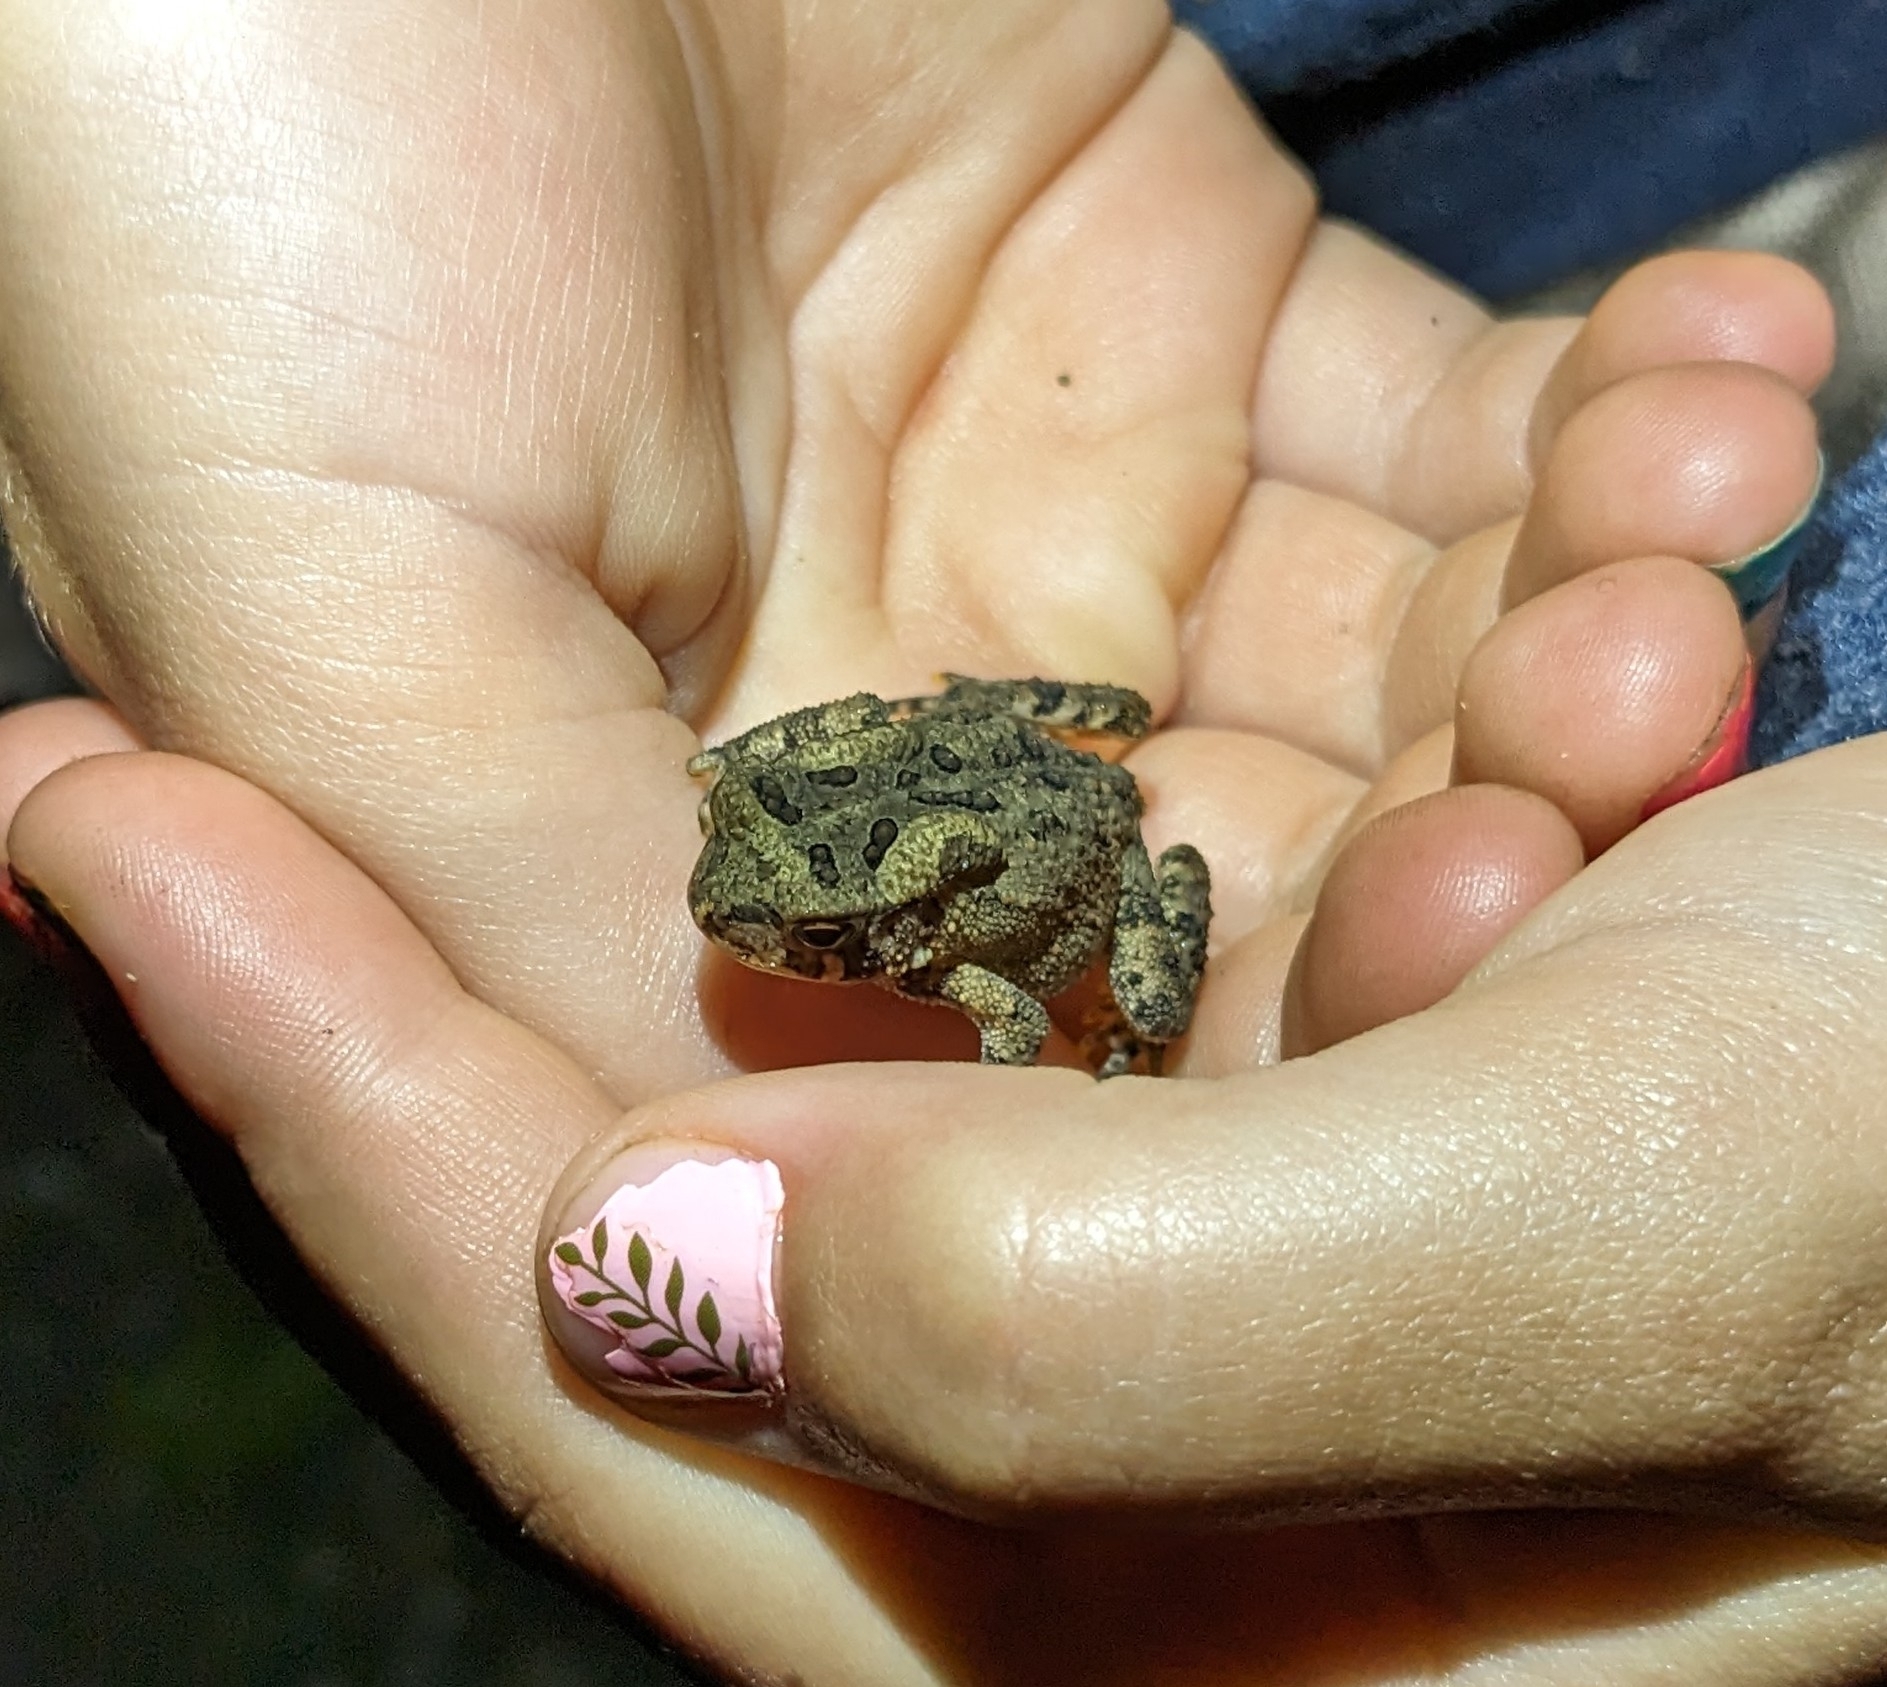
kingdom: Animalia
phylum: Chordata
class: Amphibia
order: Anura
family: Bufonidae
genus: Anaxyrus
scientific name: Anaxyrus americanus
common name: American toad
